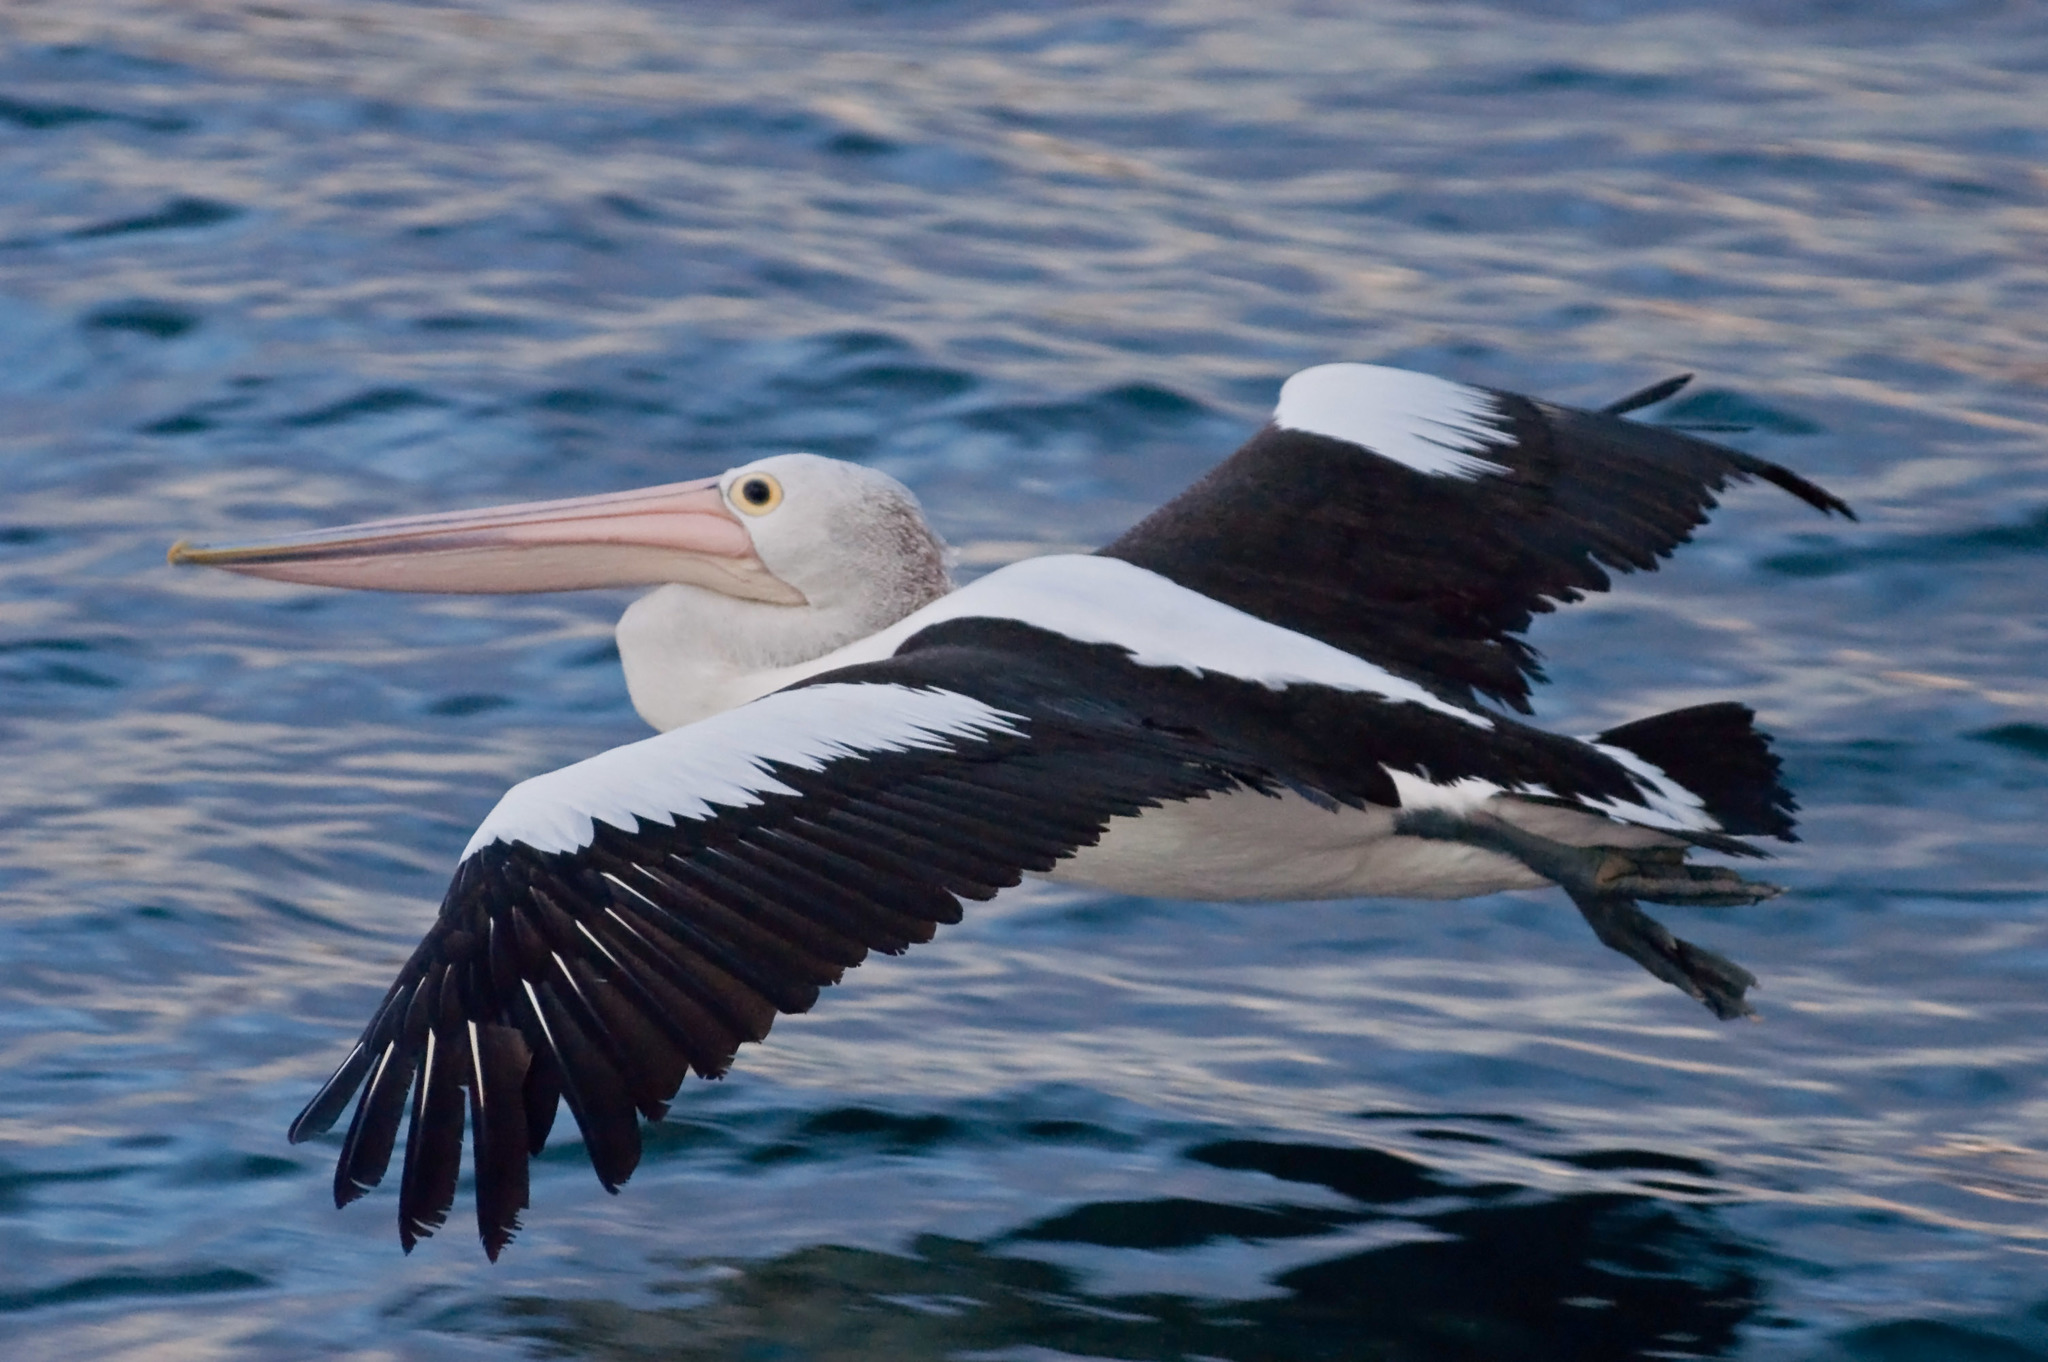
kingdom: Animalia
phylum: Chordata
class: Aves
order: Pelecaniformes
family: Pelecanidae
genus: Pelecanus
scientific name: Pelecanus conspicillatus
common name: Australian pelican
